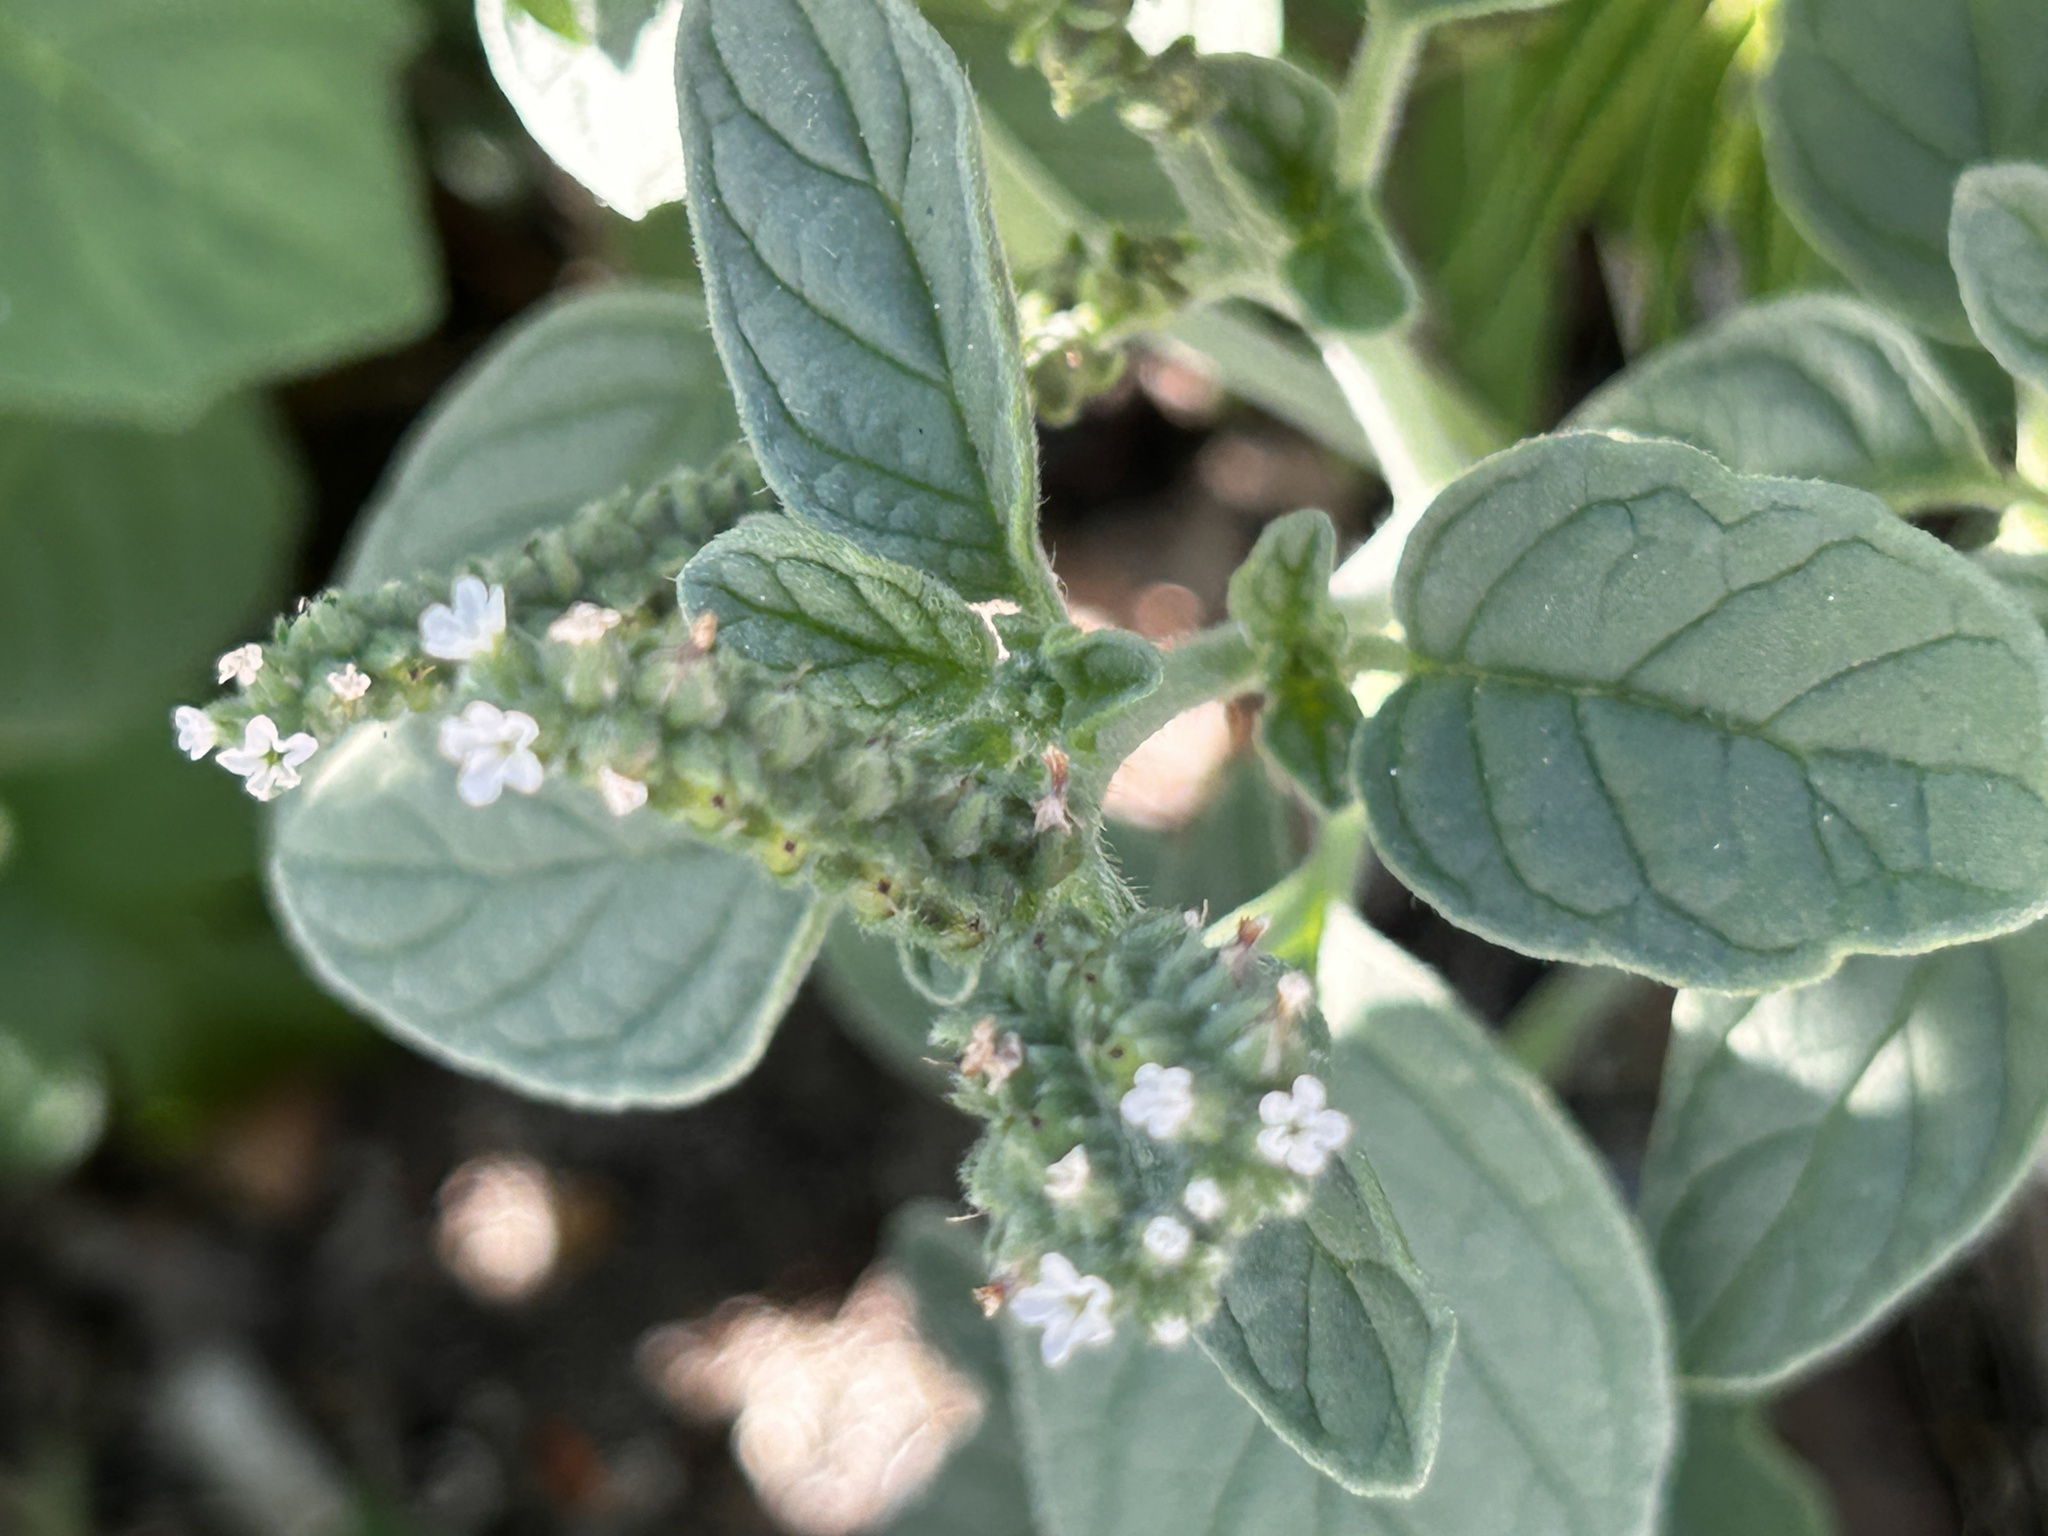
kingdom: Plantae
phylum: Tracheophyta
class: Magnoliopsida
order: Boraginales
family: Heliotropiaceae
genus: Heliotropium
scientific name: Heliotropium europaeum
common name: European heliotrope
